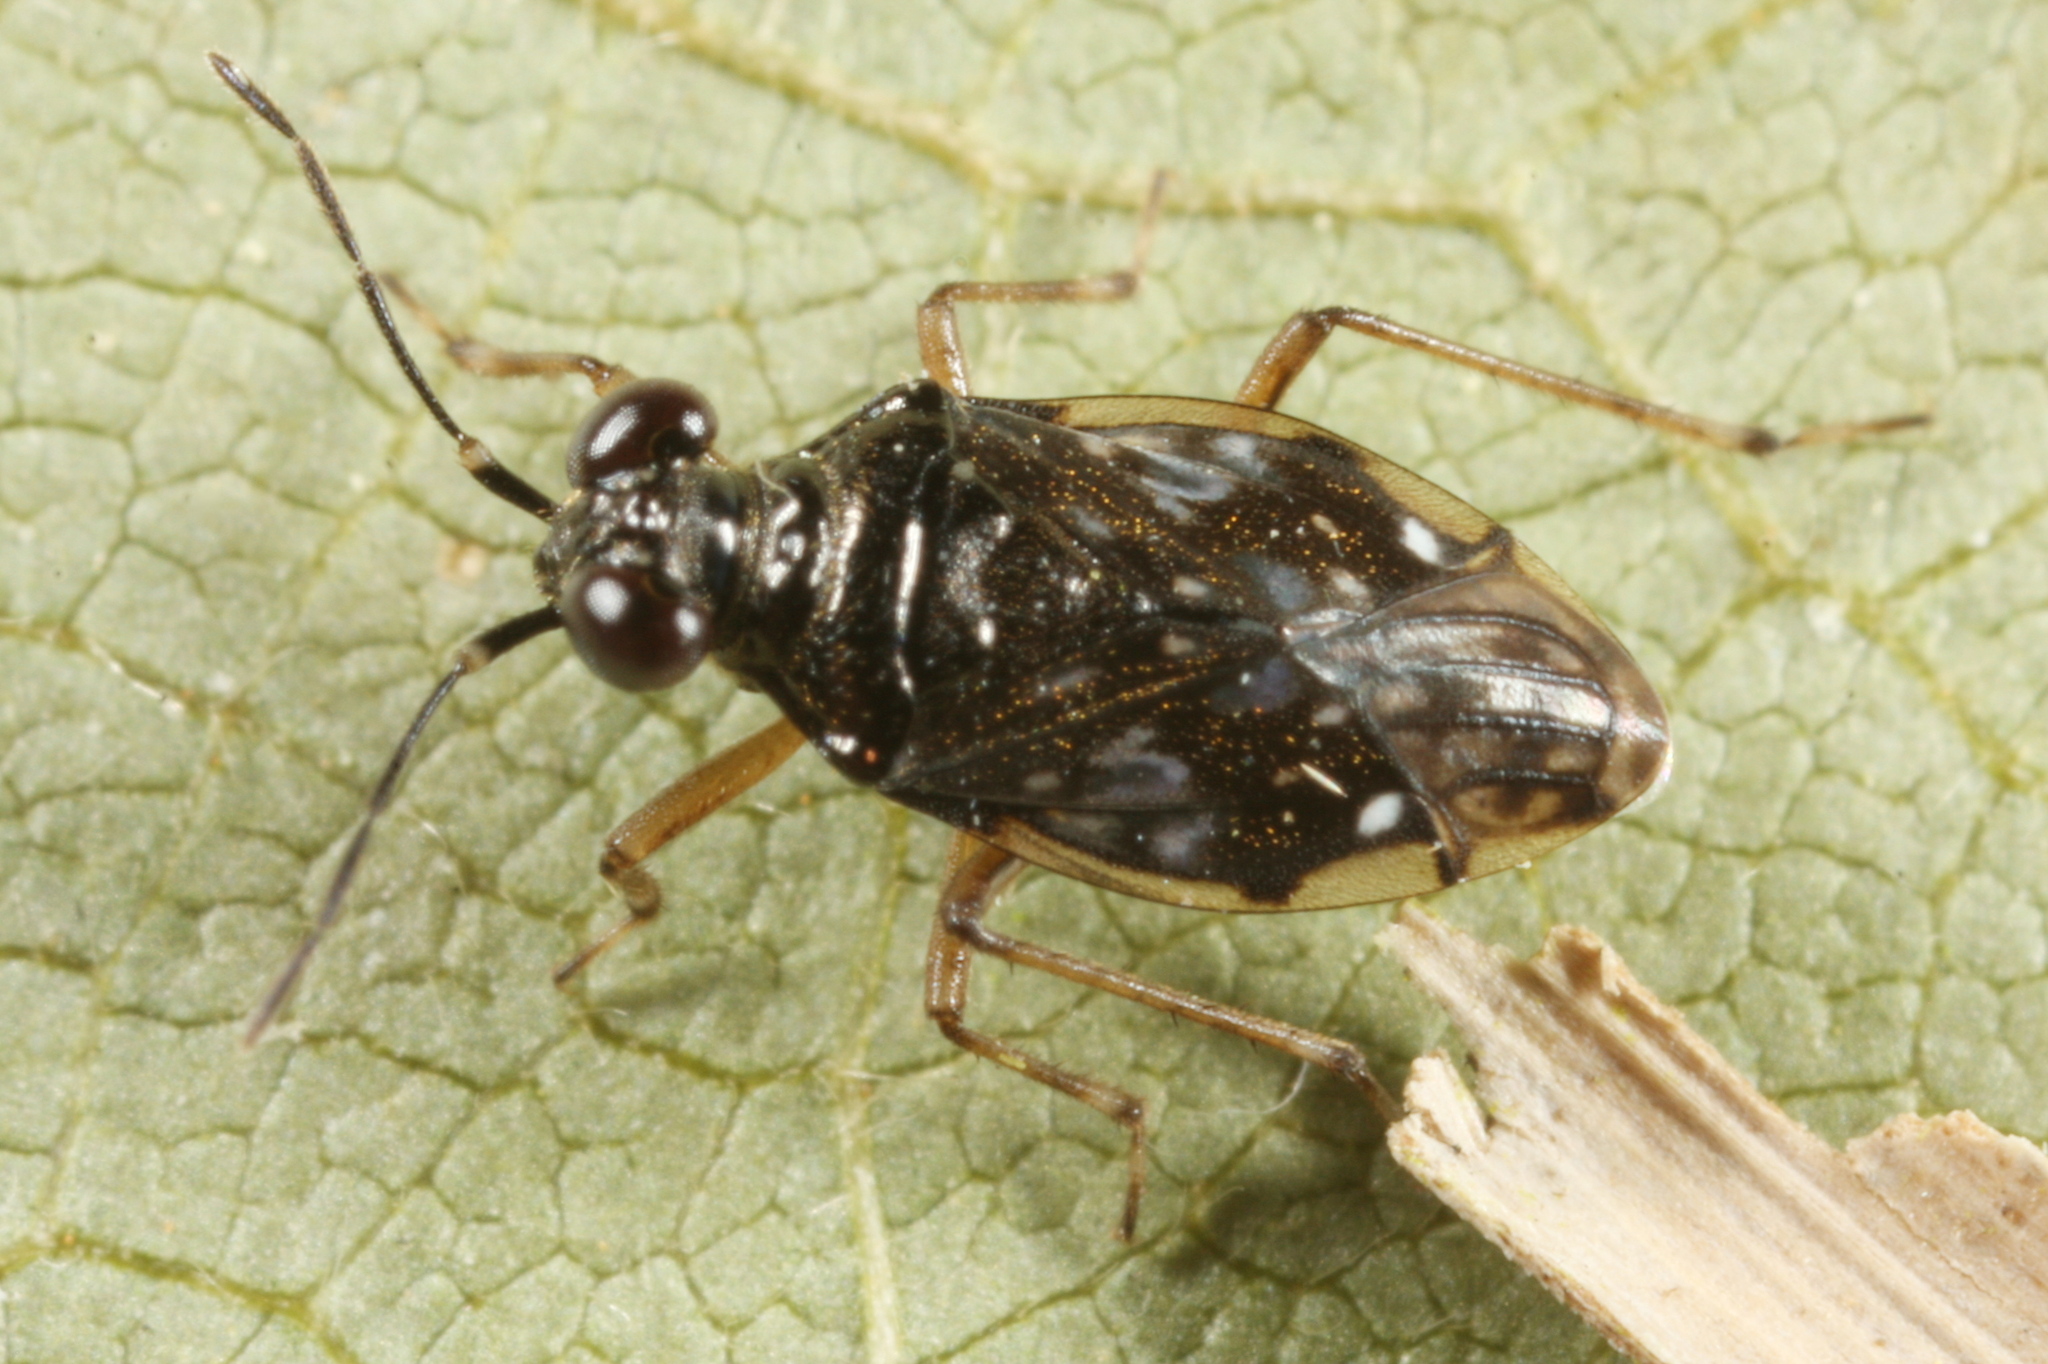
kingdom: Animalia
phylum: Arthropoda
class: Insecta
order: Hemiptera
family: Saldidae
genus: Chartoscirta
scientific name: Chartoscirta cincta
